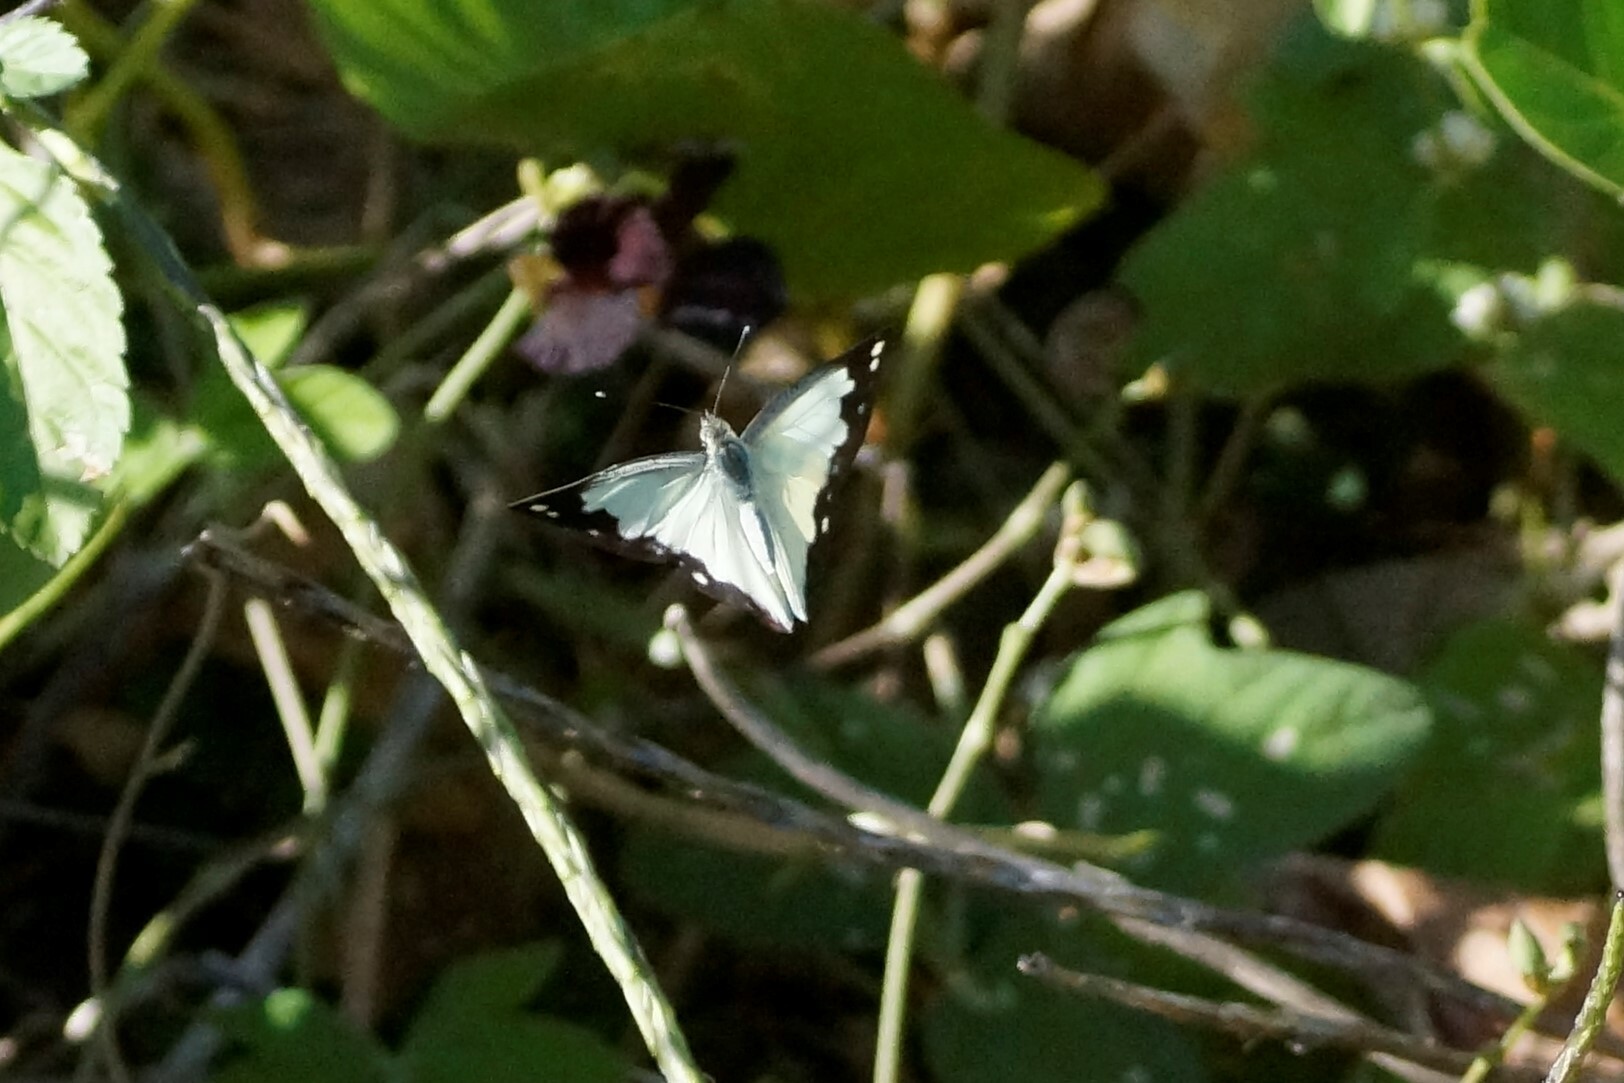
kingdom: Animalia
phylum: Arthropoda
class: Insecta
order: Lepidoptera
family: Pieridae
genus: Cepora
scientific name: Cepora perimale
